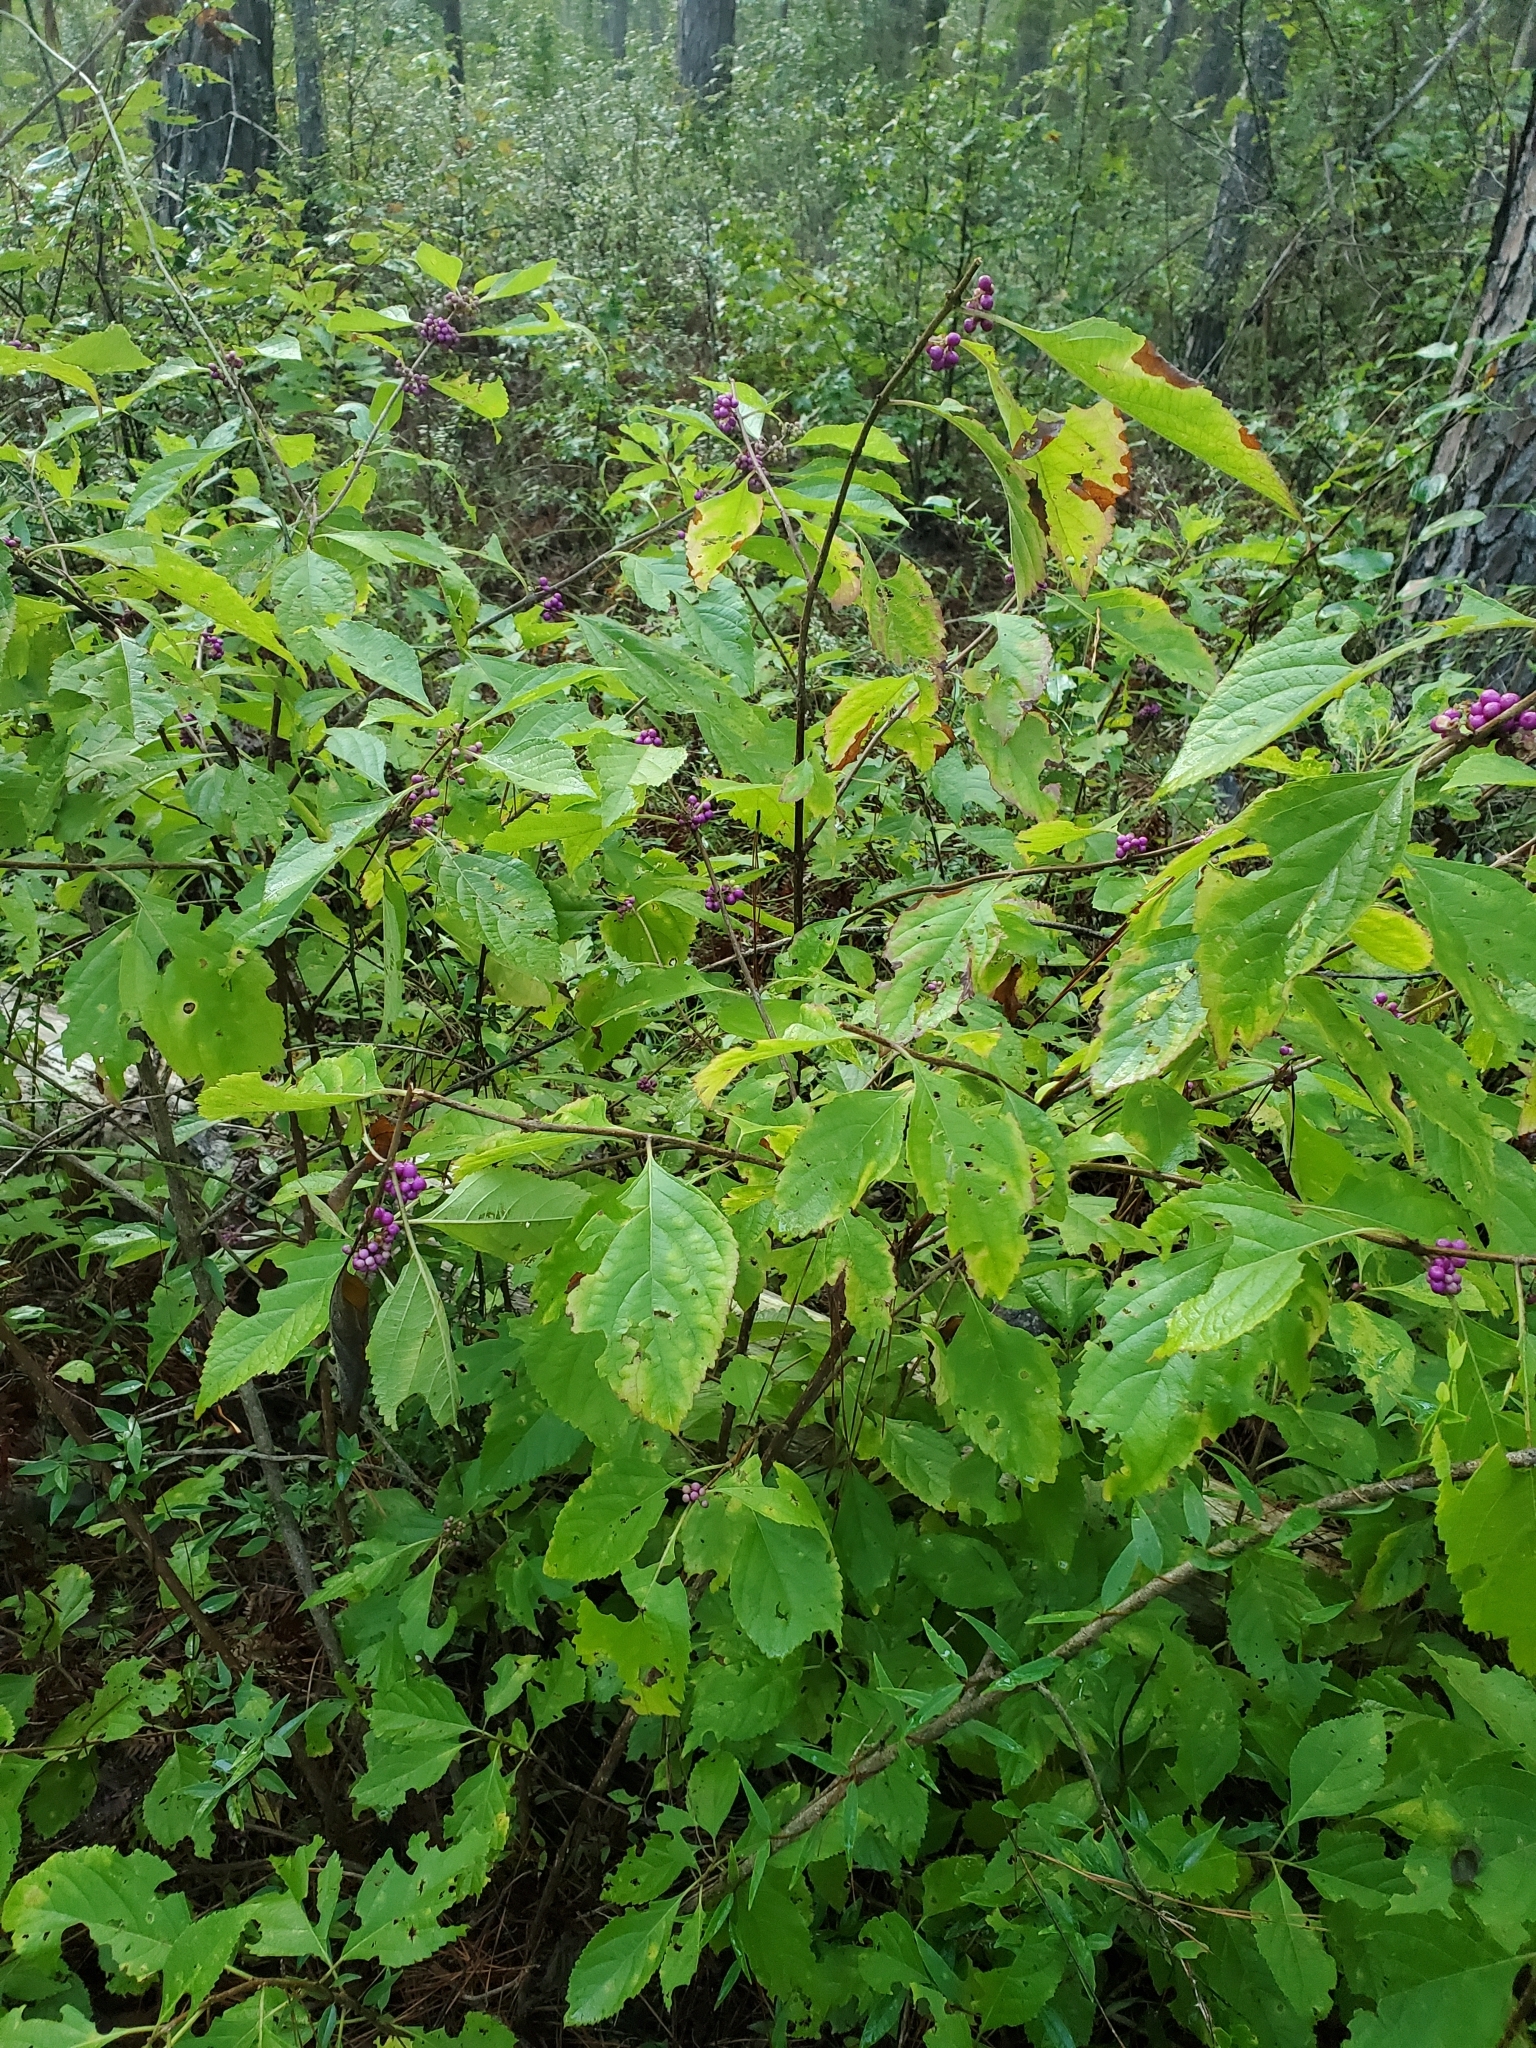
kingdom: Plantae
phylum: Tracheophyta
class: Magnoliopsida
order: Lamiales
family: Lamiaceae
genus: Callicarpa
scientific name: Callicarpa americana
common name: American beautyberry
